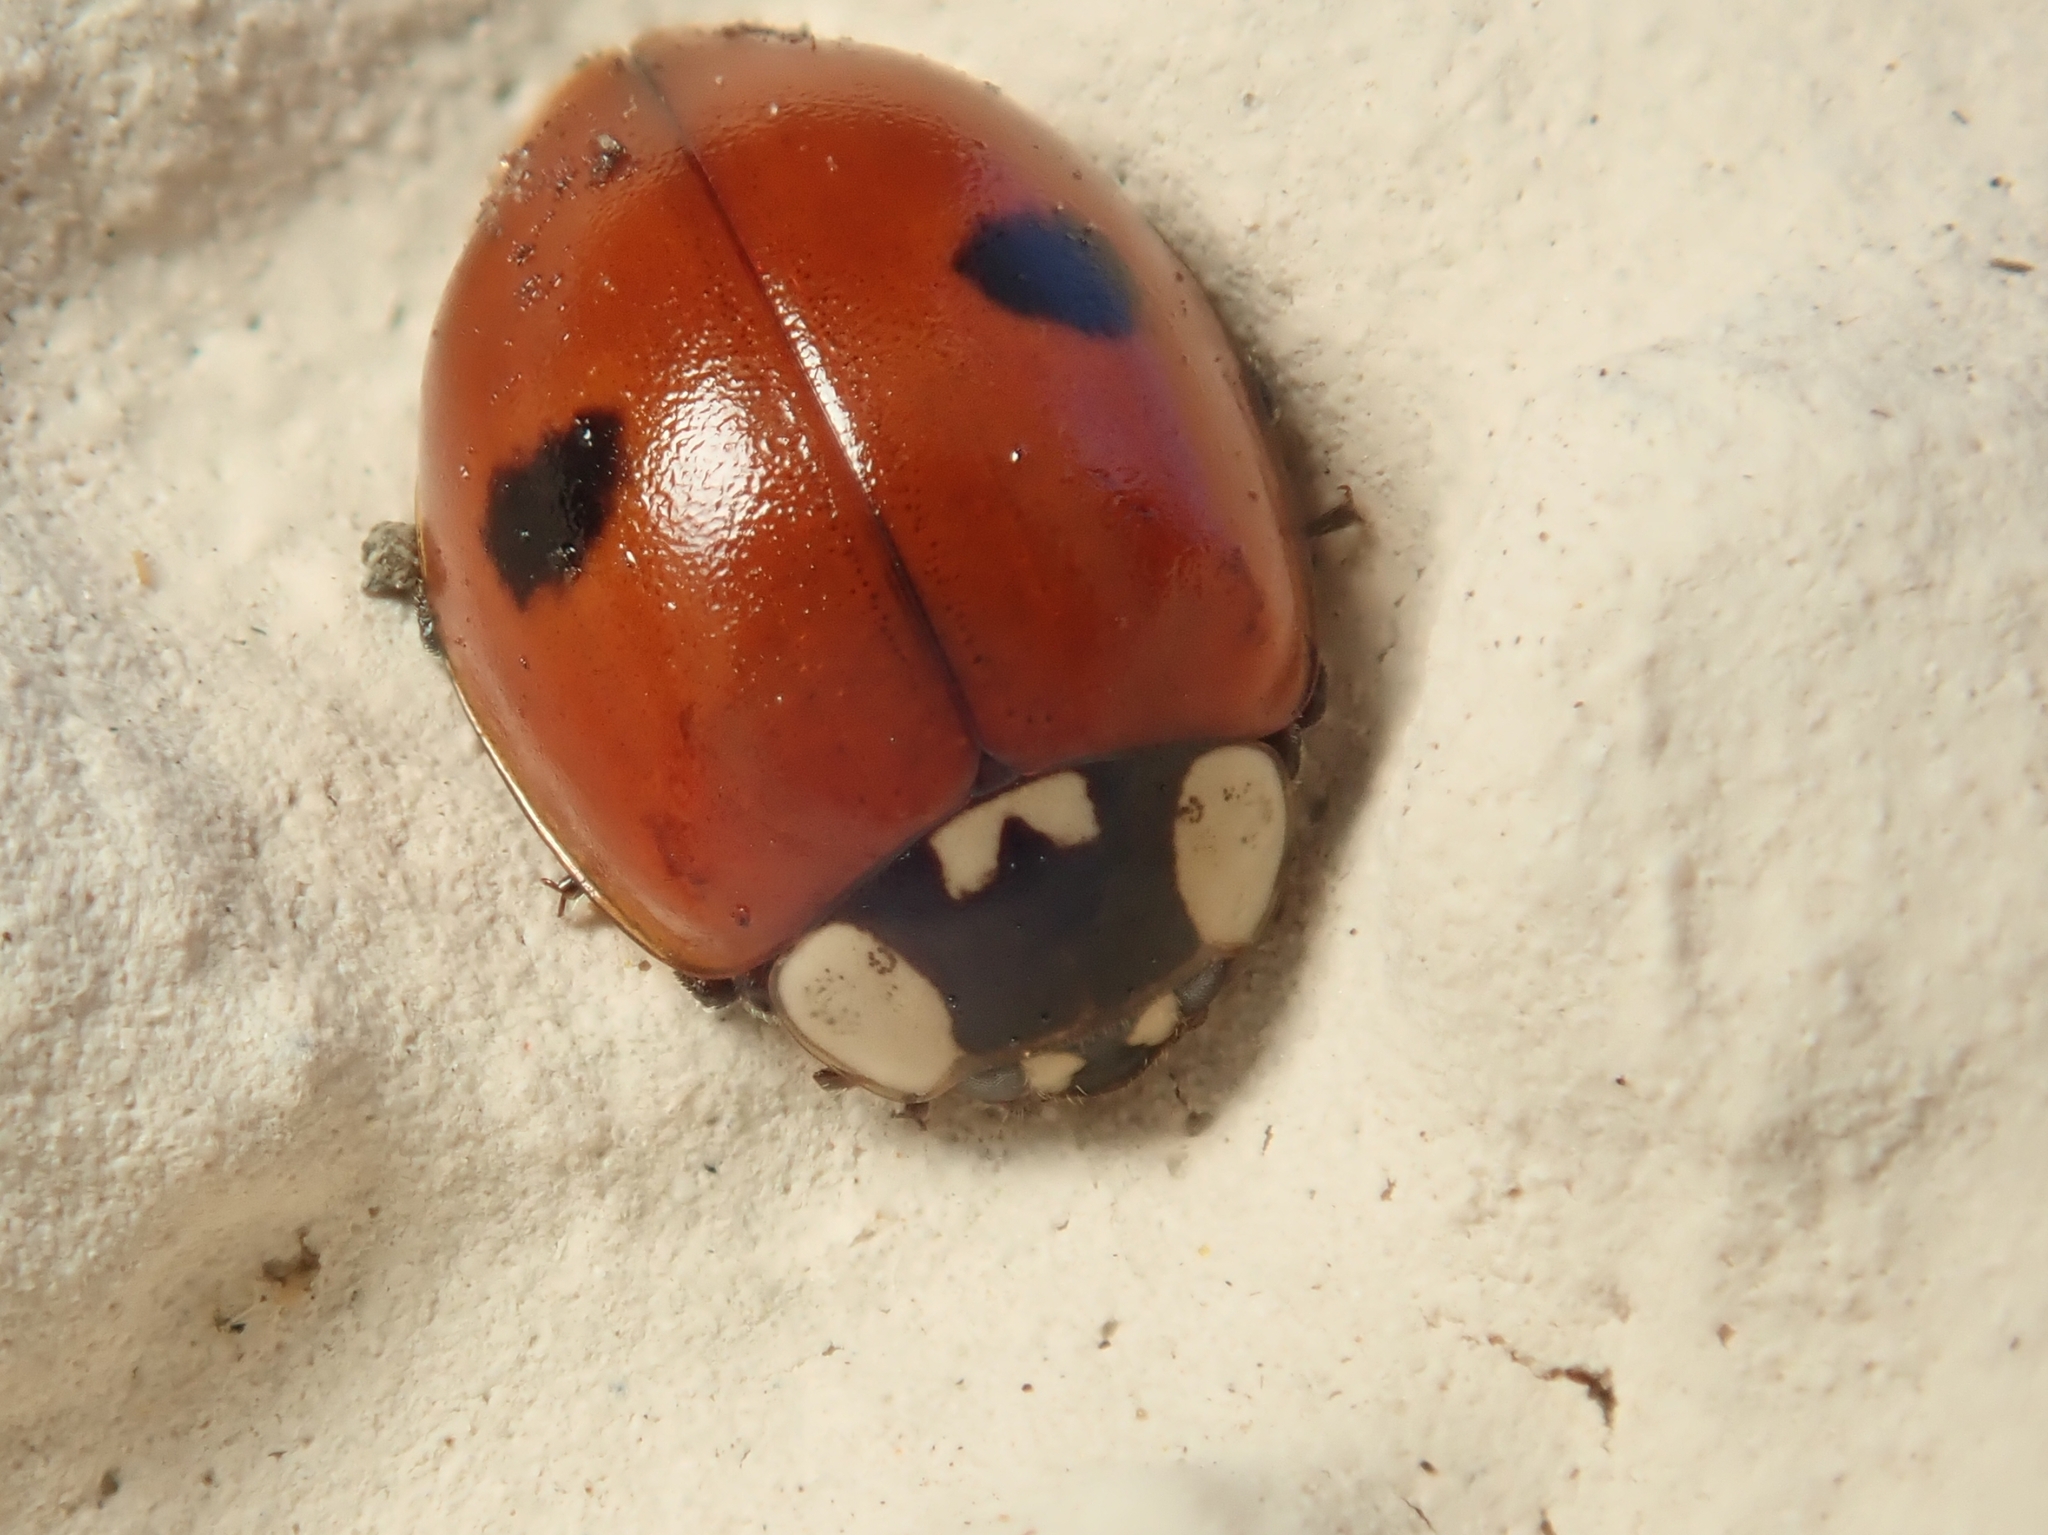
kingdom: Animalia
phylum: Arthropoda
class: Insecta
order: Coleoptera
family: Coccinellidae
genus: Adalia
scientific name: Adalia bipunctata
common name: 2-spot ladybird
